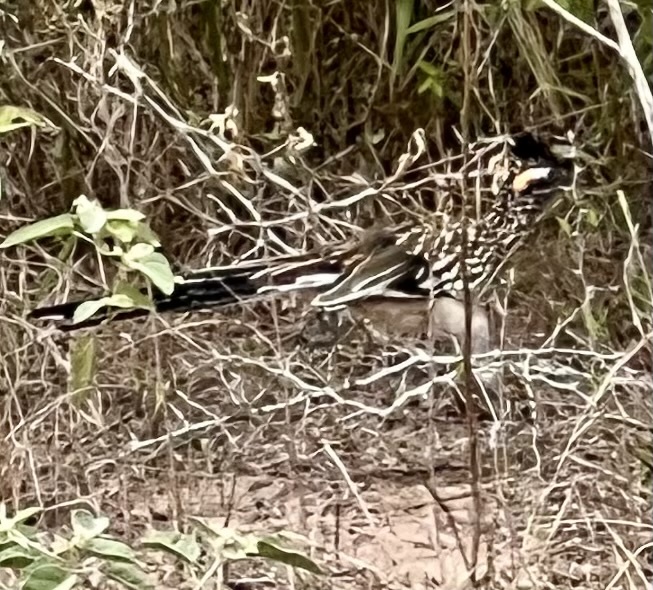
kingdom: Animalia
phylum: Chordata
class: Aves
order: Cuculiformes
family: Cuculidae
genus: Geococcyx
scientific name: Geococcyx californianus
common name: Greater roadrunner
